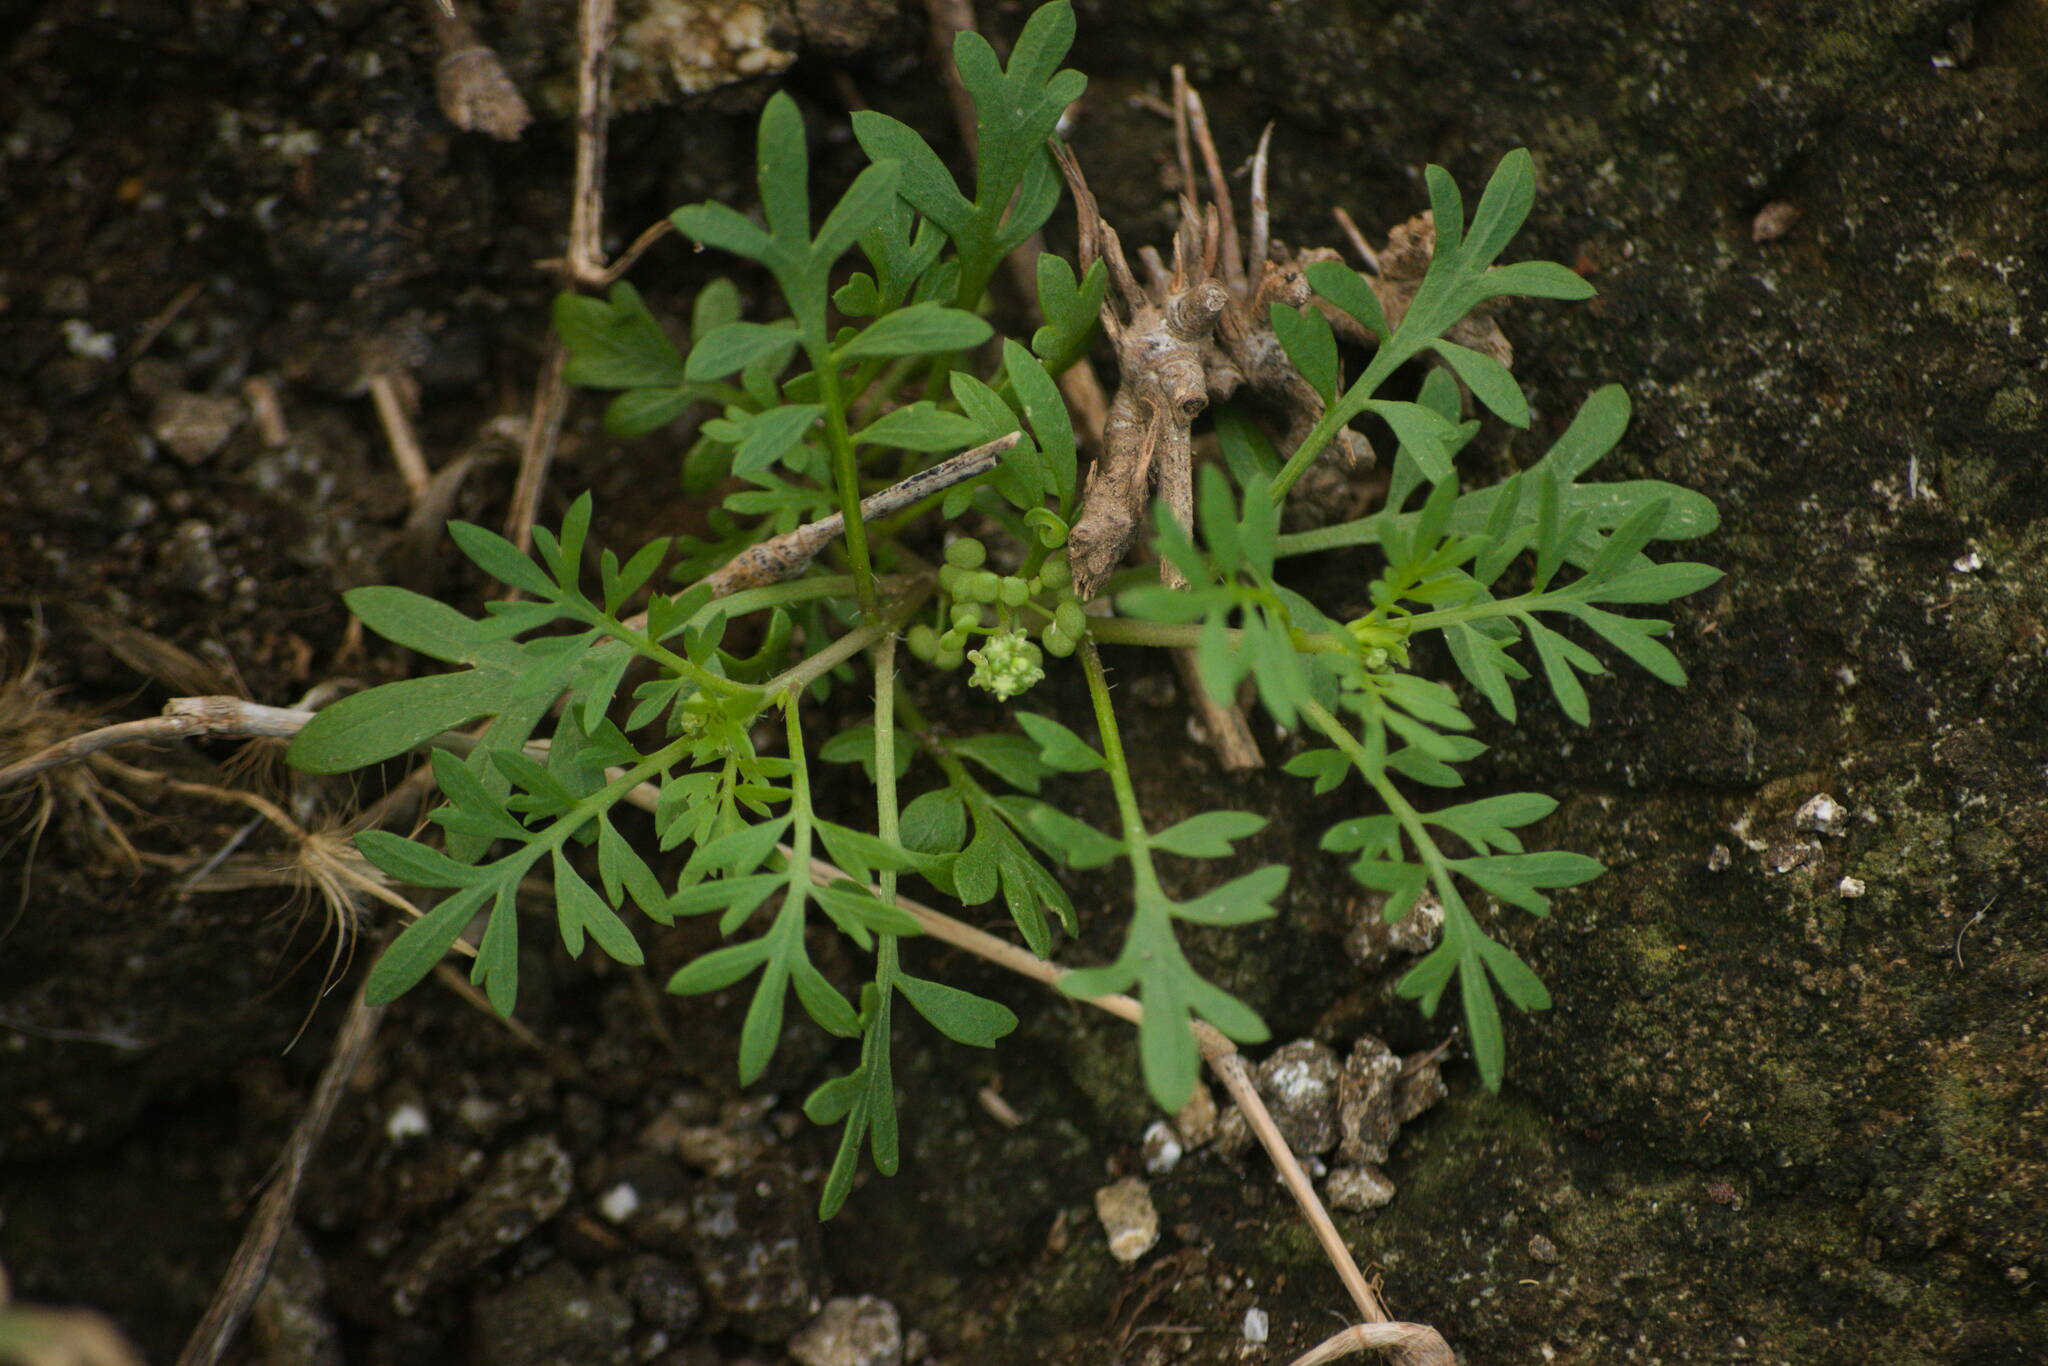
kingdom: Plantae
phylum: Tracheophyta
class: Magnoliopsida
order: Brassicales
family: Brassicaceae
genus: Lepidium
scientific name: Lepidium didymum
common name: Lesser swinecress
